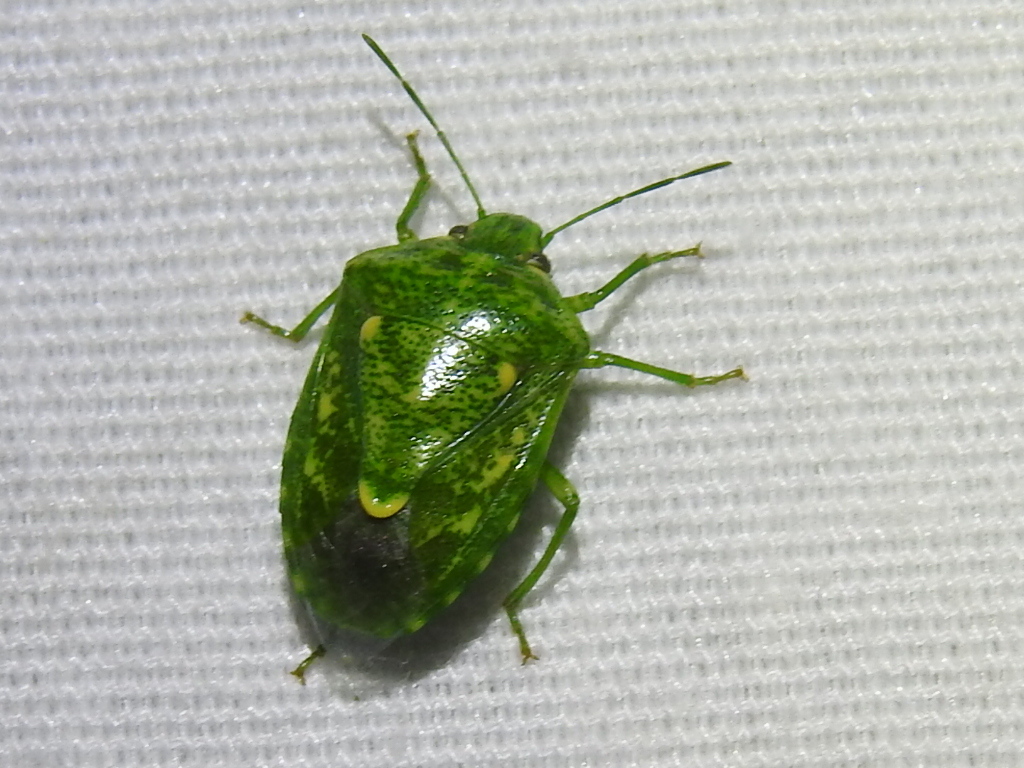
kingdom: Animalia
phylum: Arthropoda
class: Insecta
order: Hemiptera
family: Pentatomidae
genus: Banasa
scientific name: Banasa euchlora
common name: Cedar berry bug
